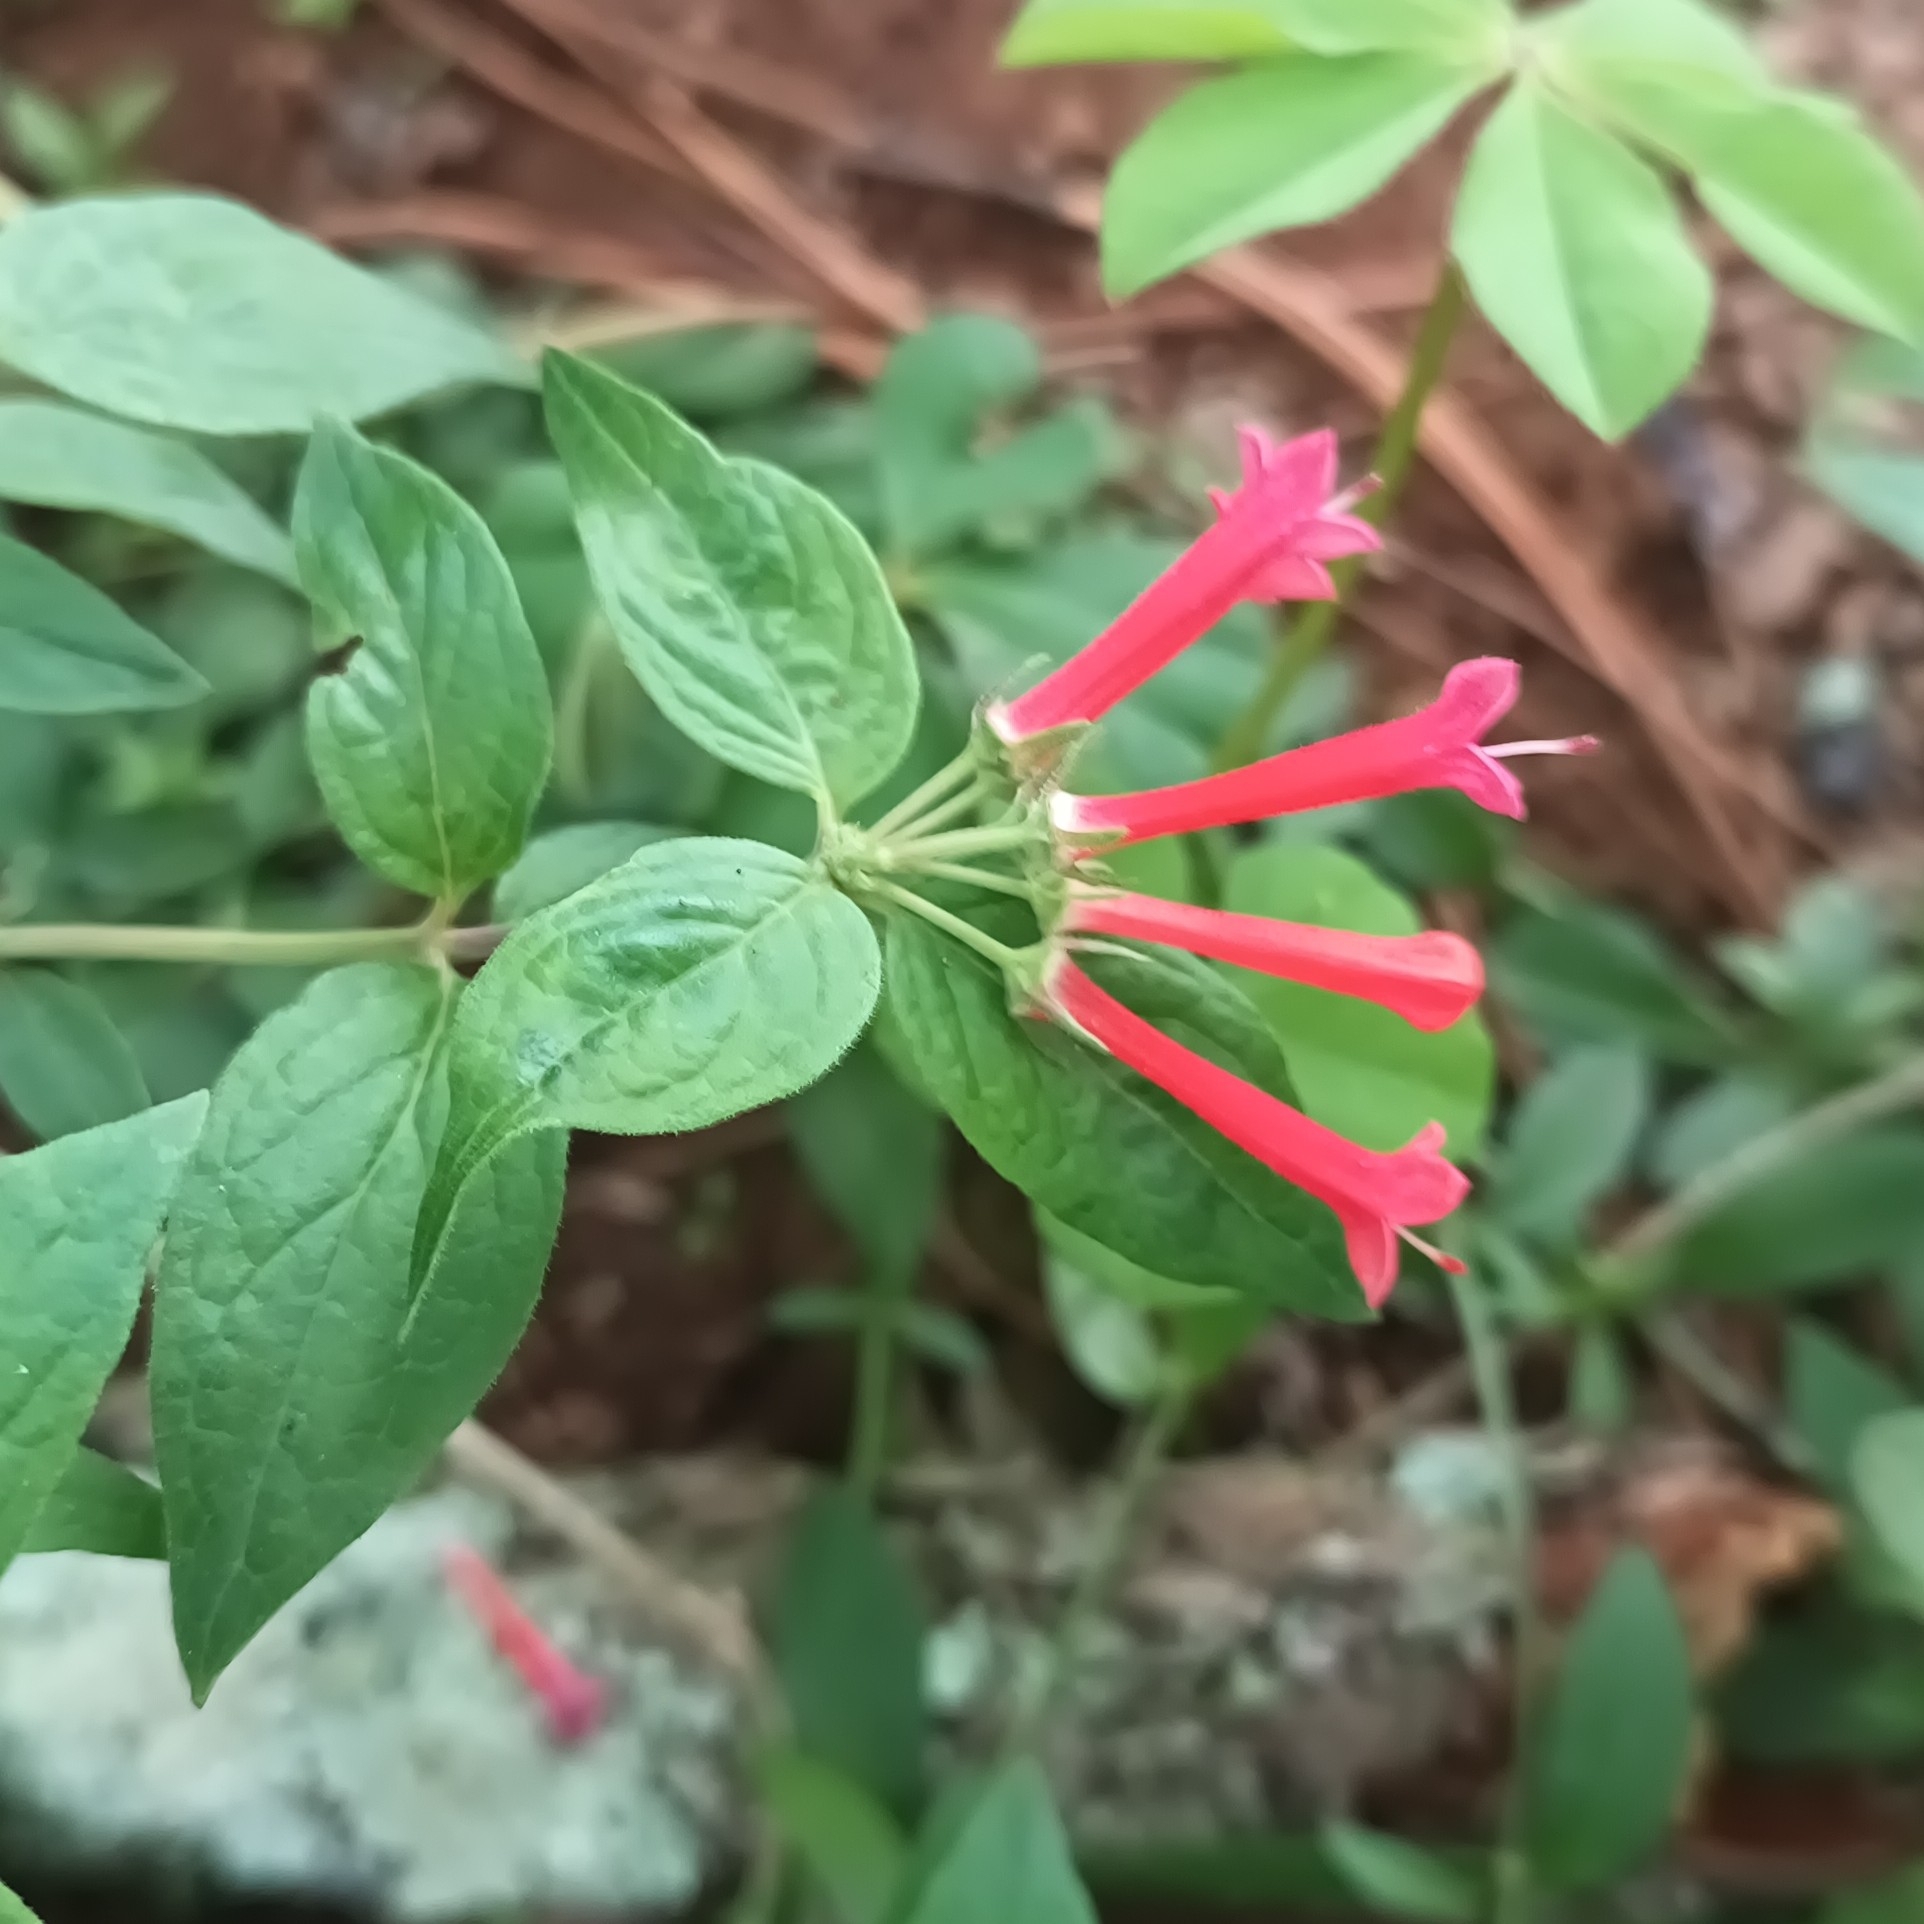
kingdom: Plantae
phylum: Tracheophyta
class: Magnoliopsida
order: Gentianales
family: Rubiaceae
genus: Bouvardia
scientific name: Bouvardia ternifolia
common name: Scarlet bouvardia
